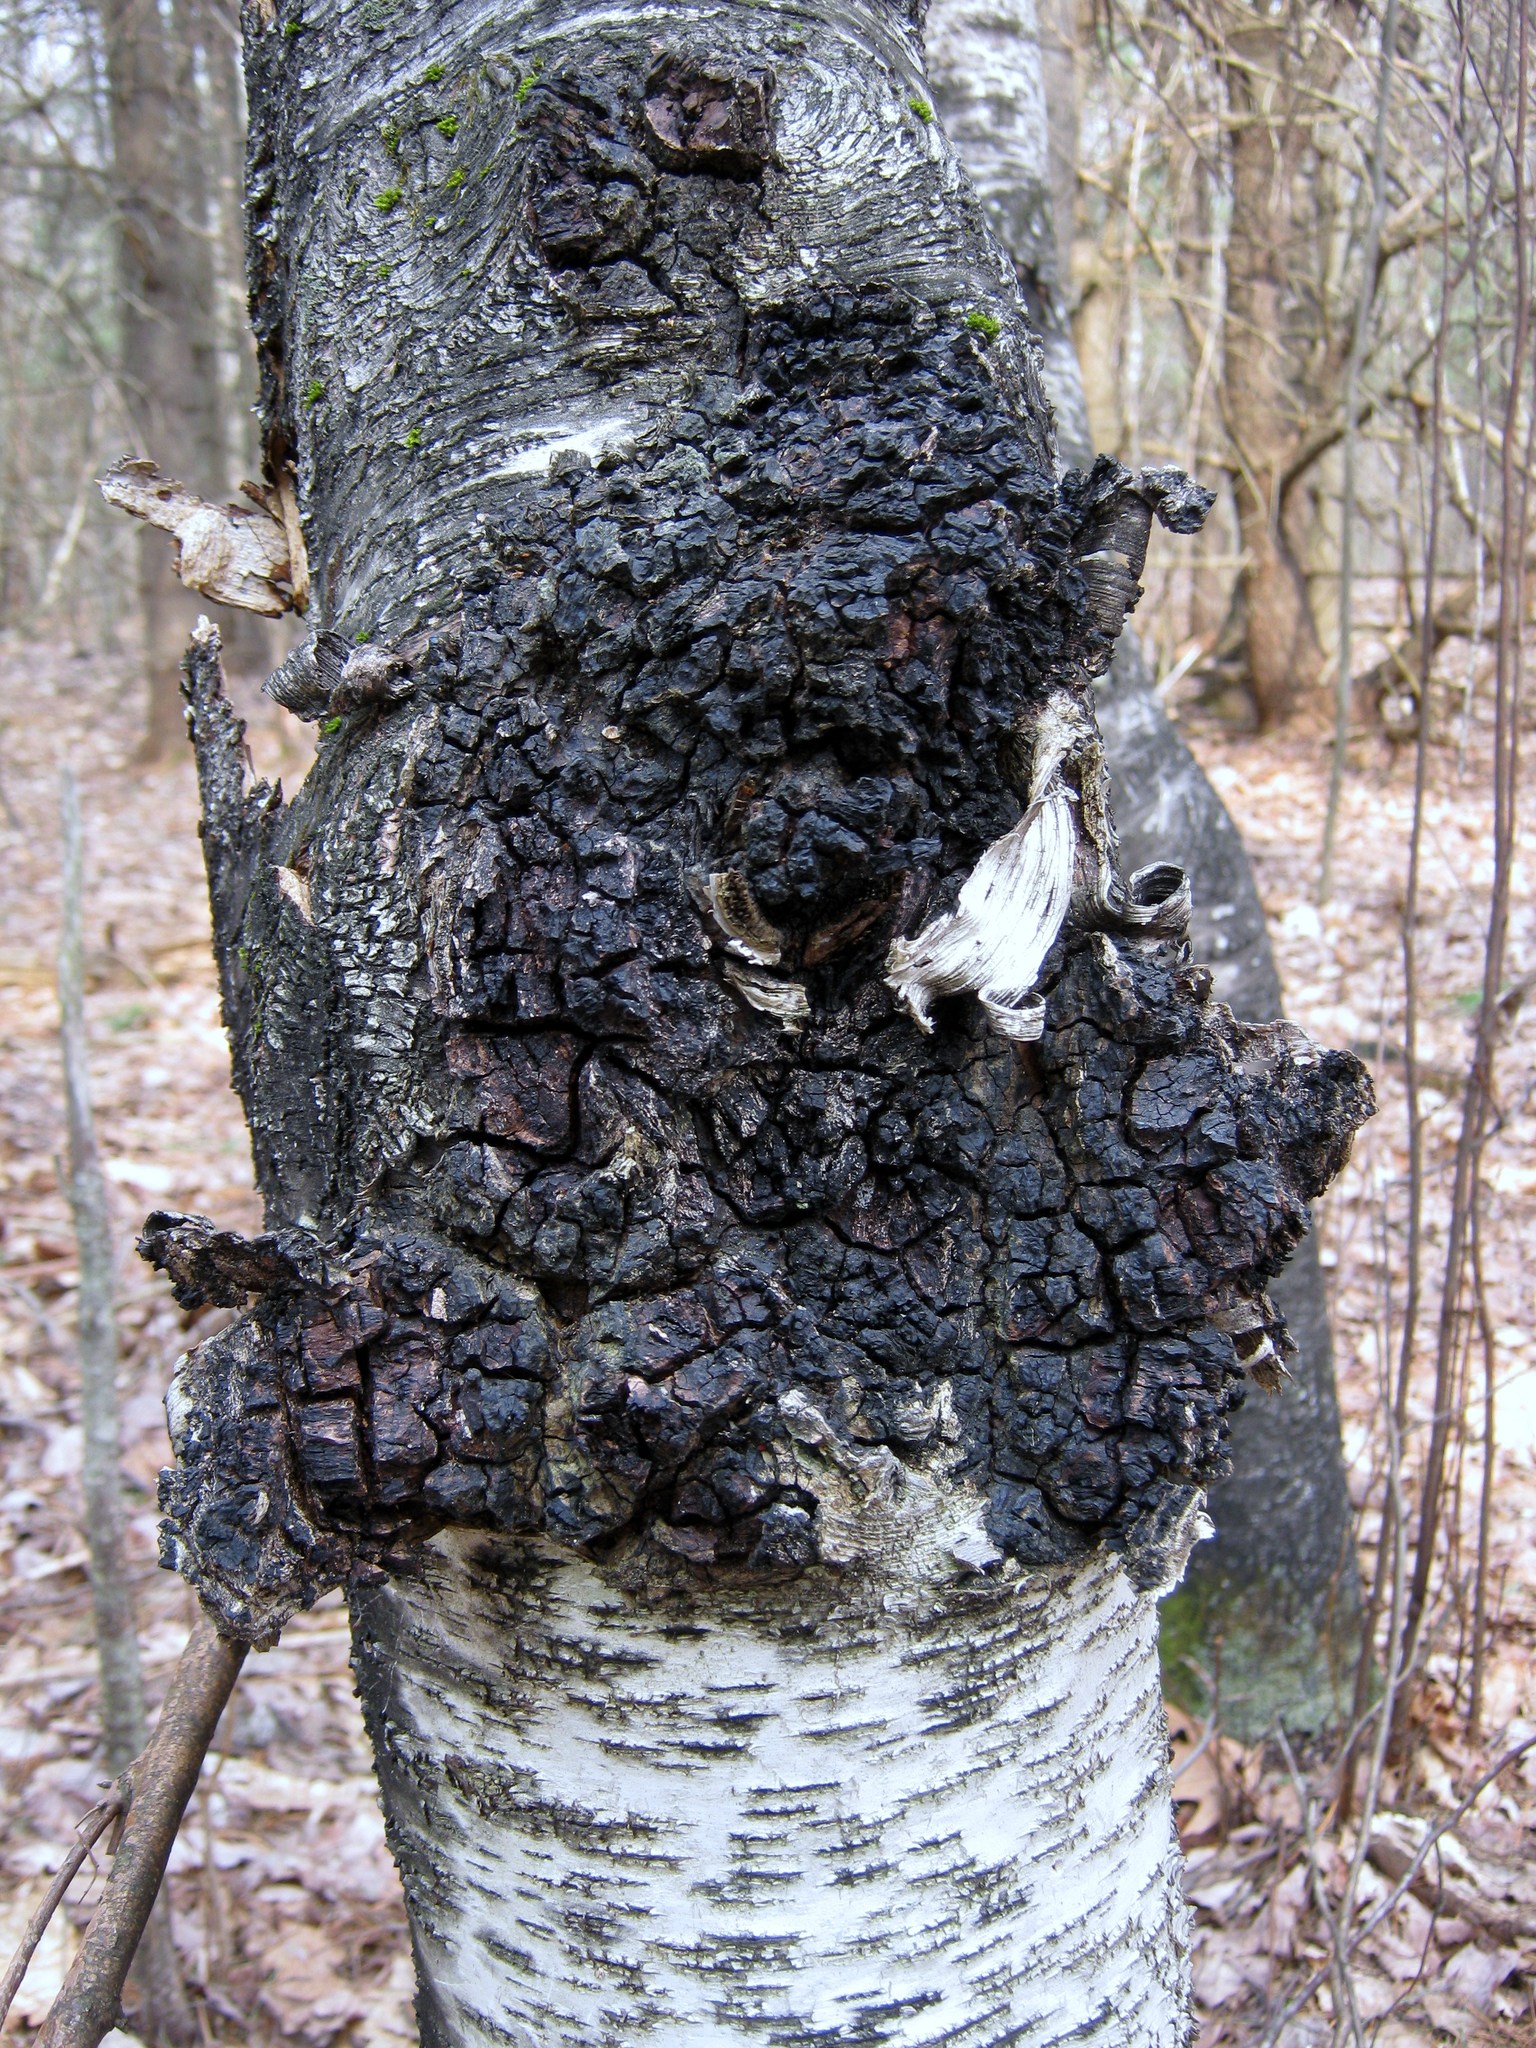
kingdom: Fungi
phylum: Basidiomycota
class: Agaricomycetes
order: Hymenochaetales
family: Hymenochaetaceae
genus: Inonotus
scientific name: Inonotus obliquus
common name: Chaga
